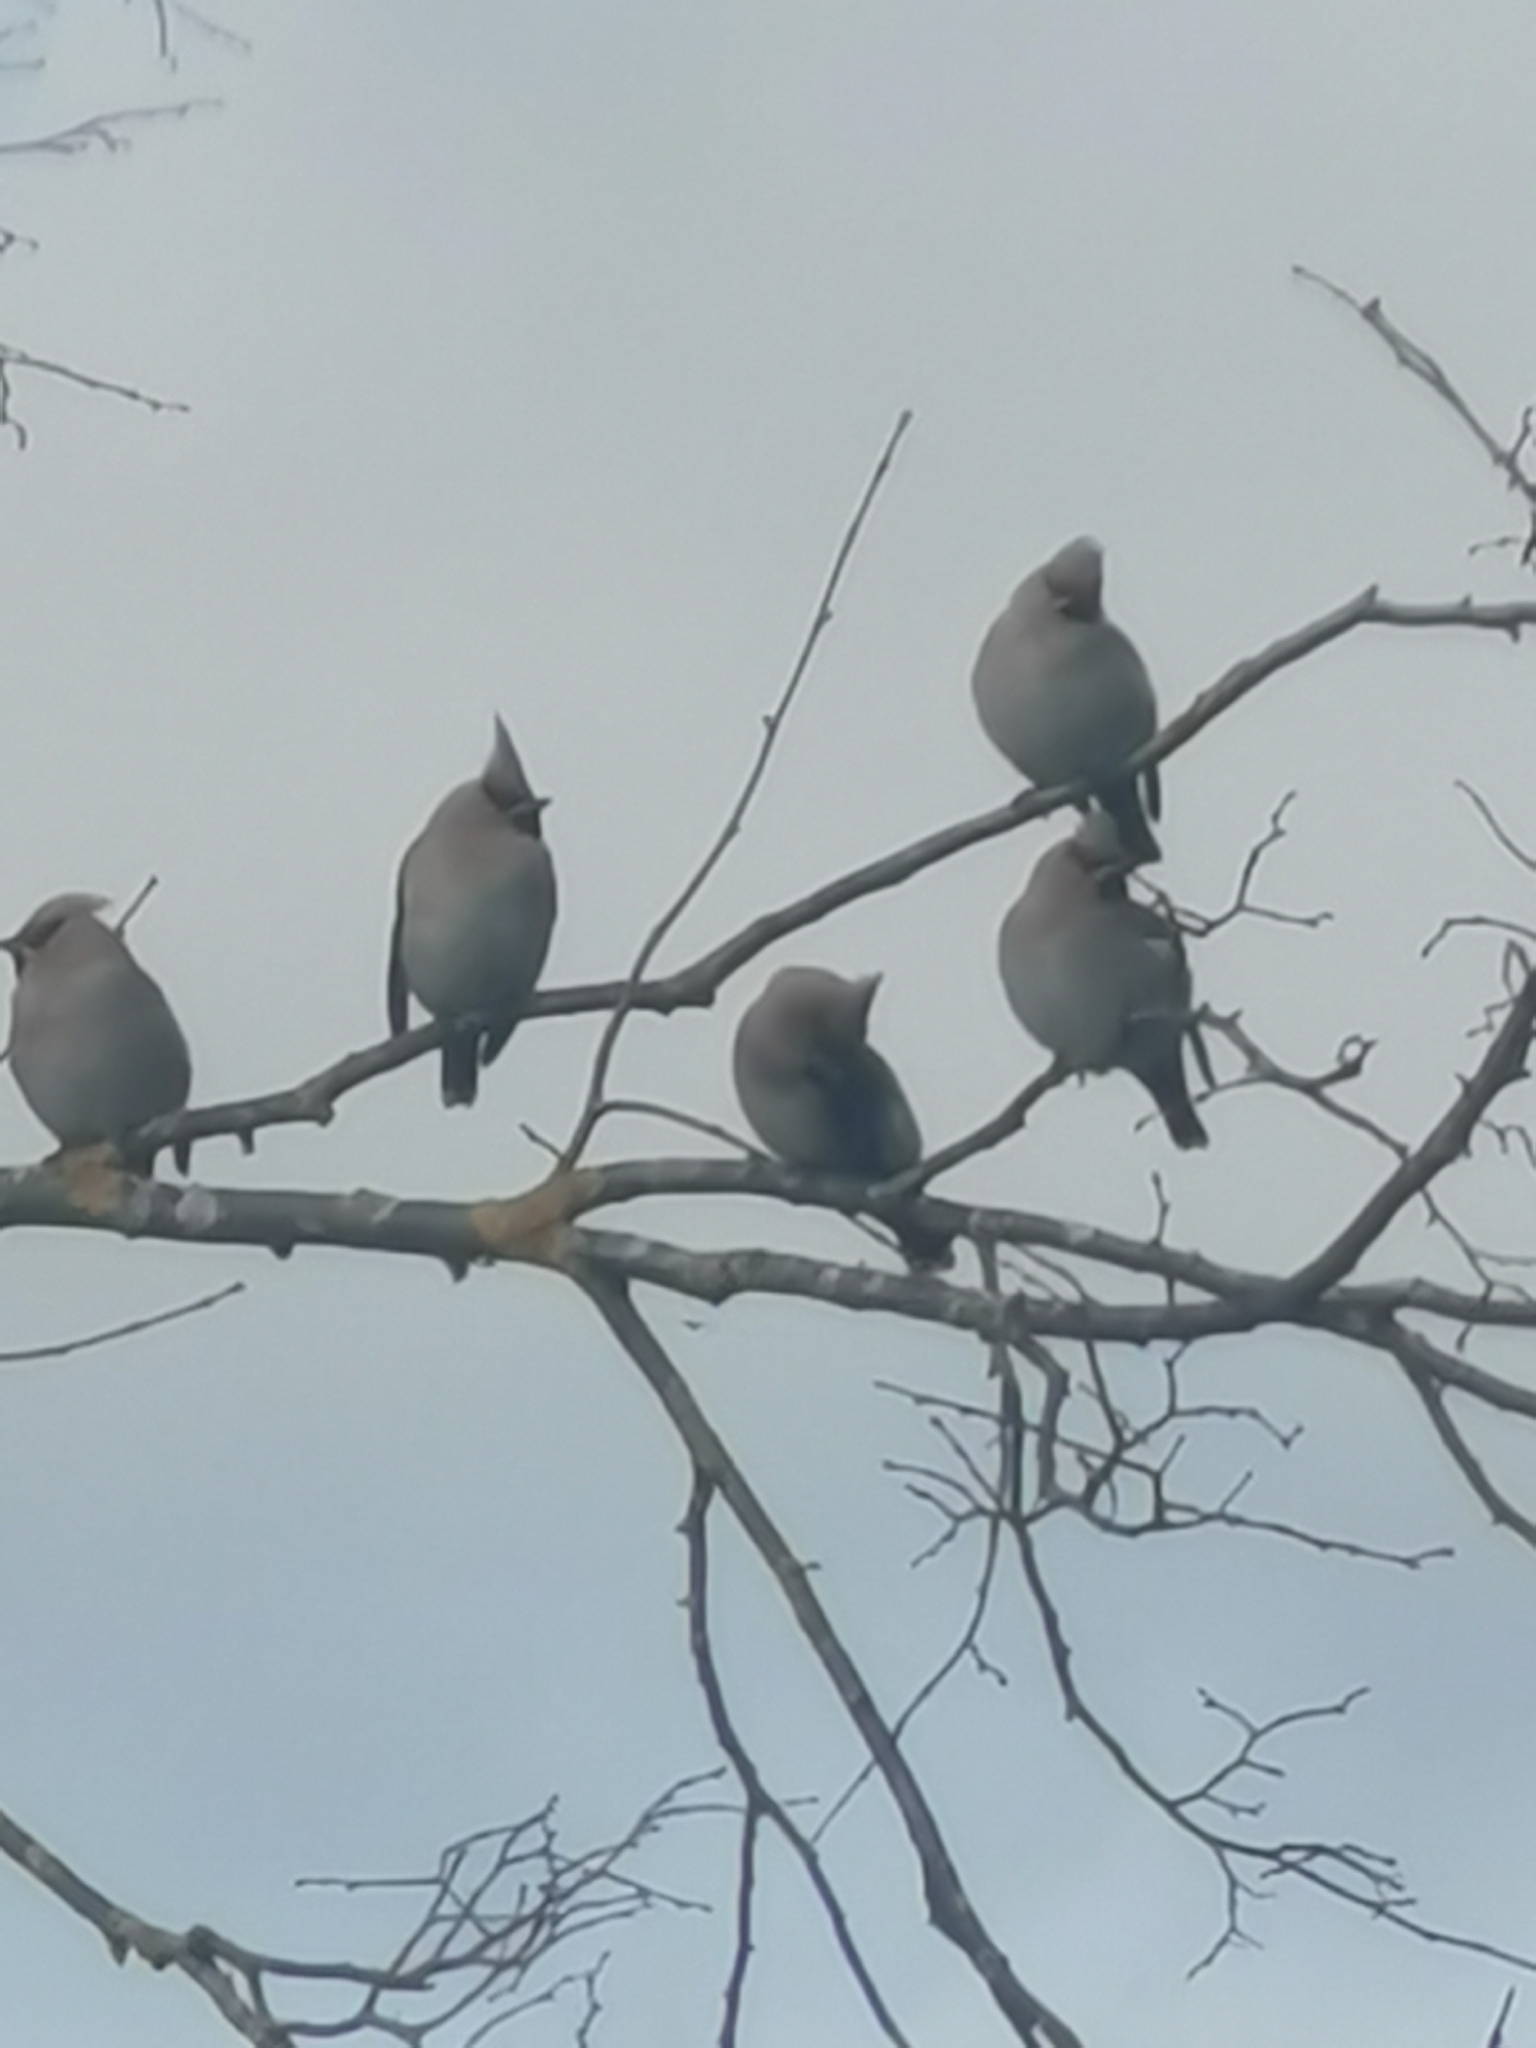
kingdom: Animalia
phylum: Chordata
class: Aves
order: Passeriformes
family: Bombycillidae
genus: Bombycilla
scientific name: Bombycilla garrulus
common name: Bohemian waxwing
